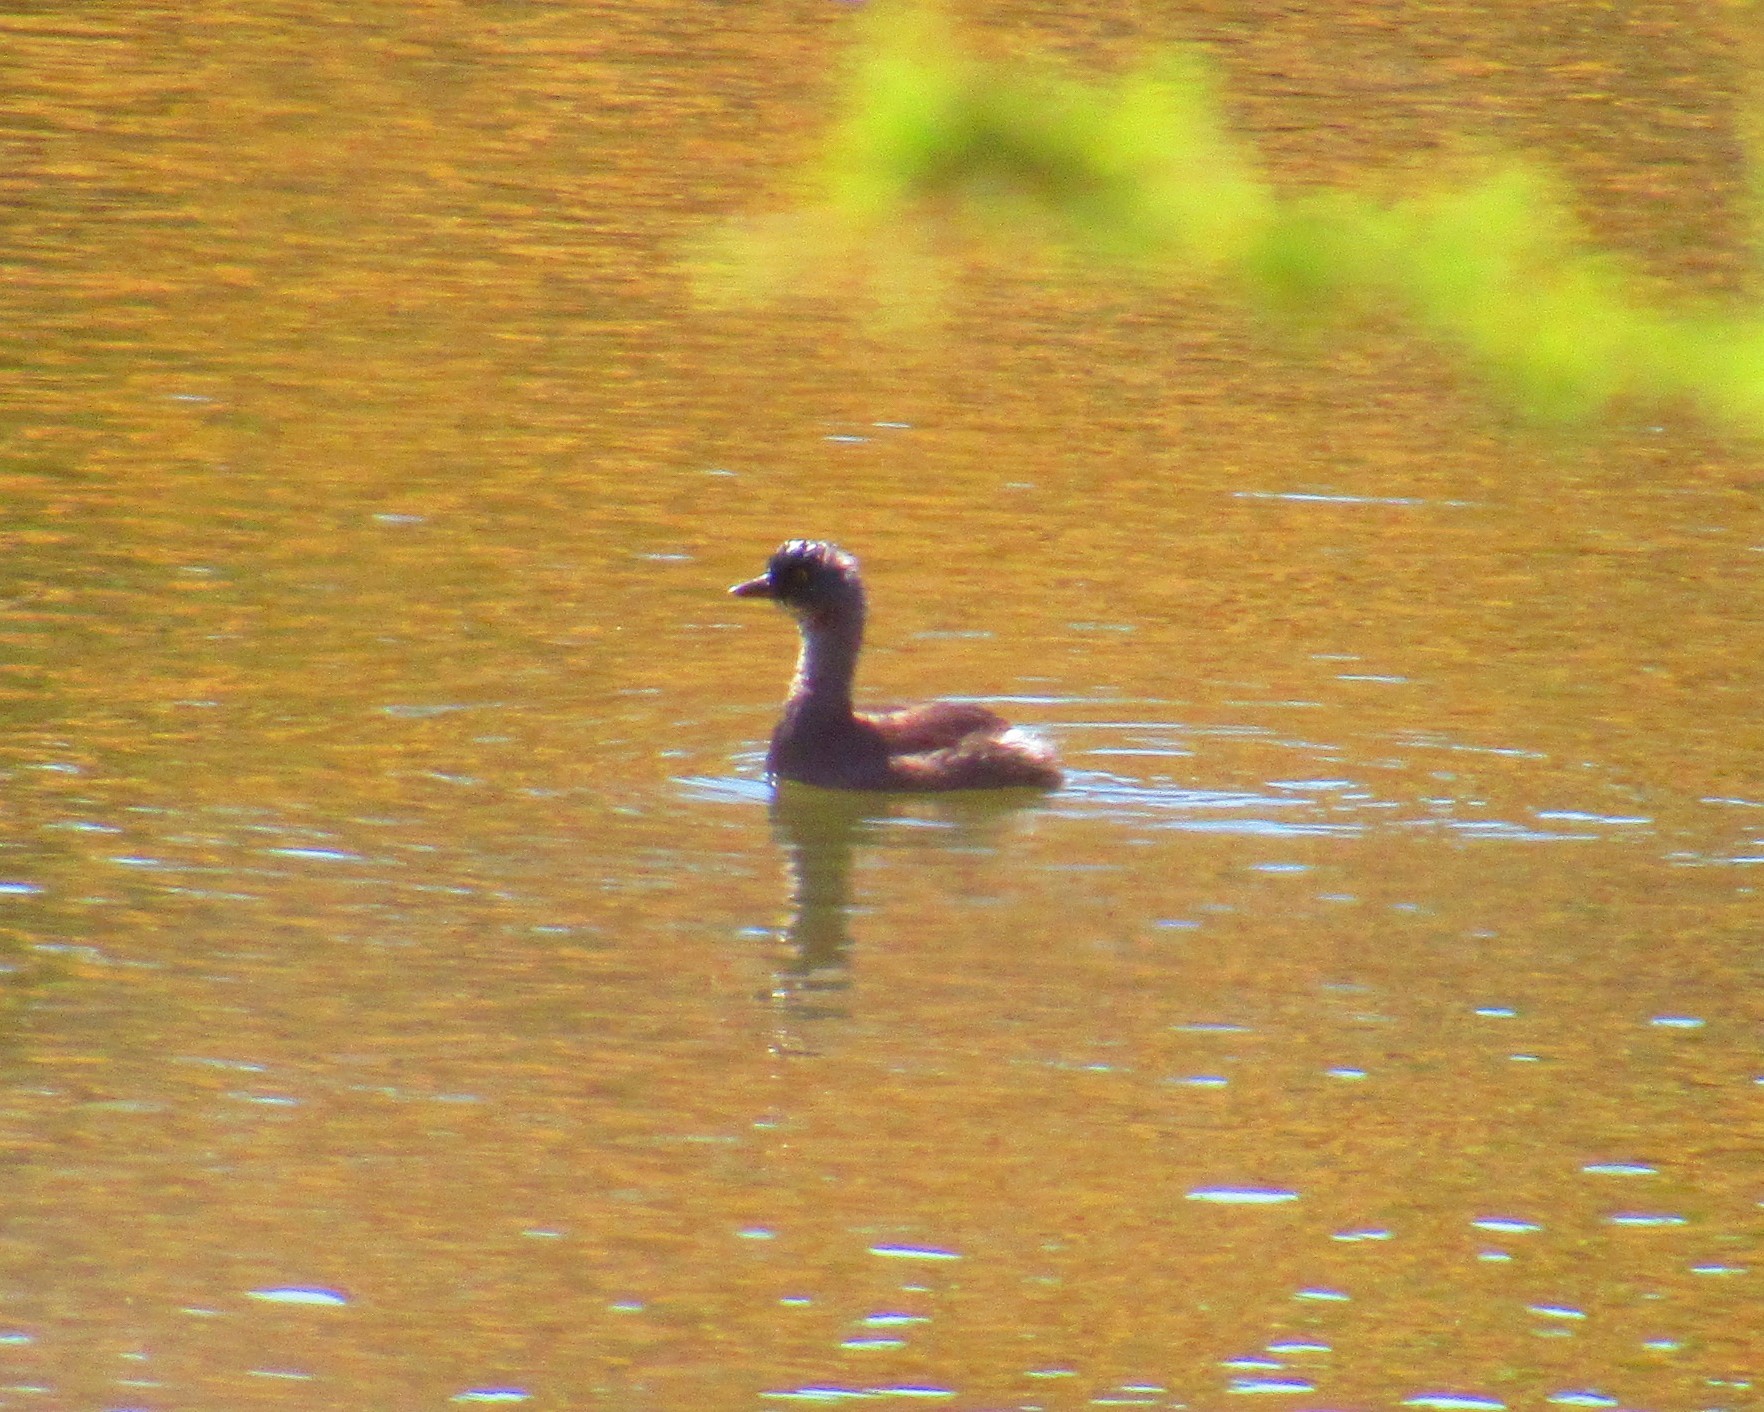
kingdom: Animalia
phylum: Chordata
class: Aves
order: Podicipediformes
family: Podicipedidae
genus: Tachybaptus
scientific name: Tachybaptus dominicus
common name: Least grebe
